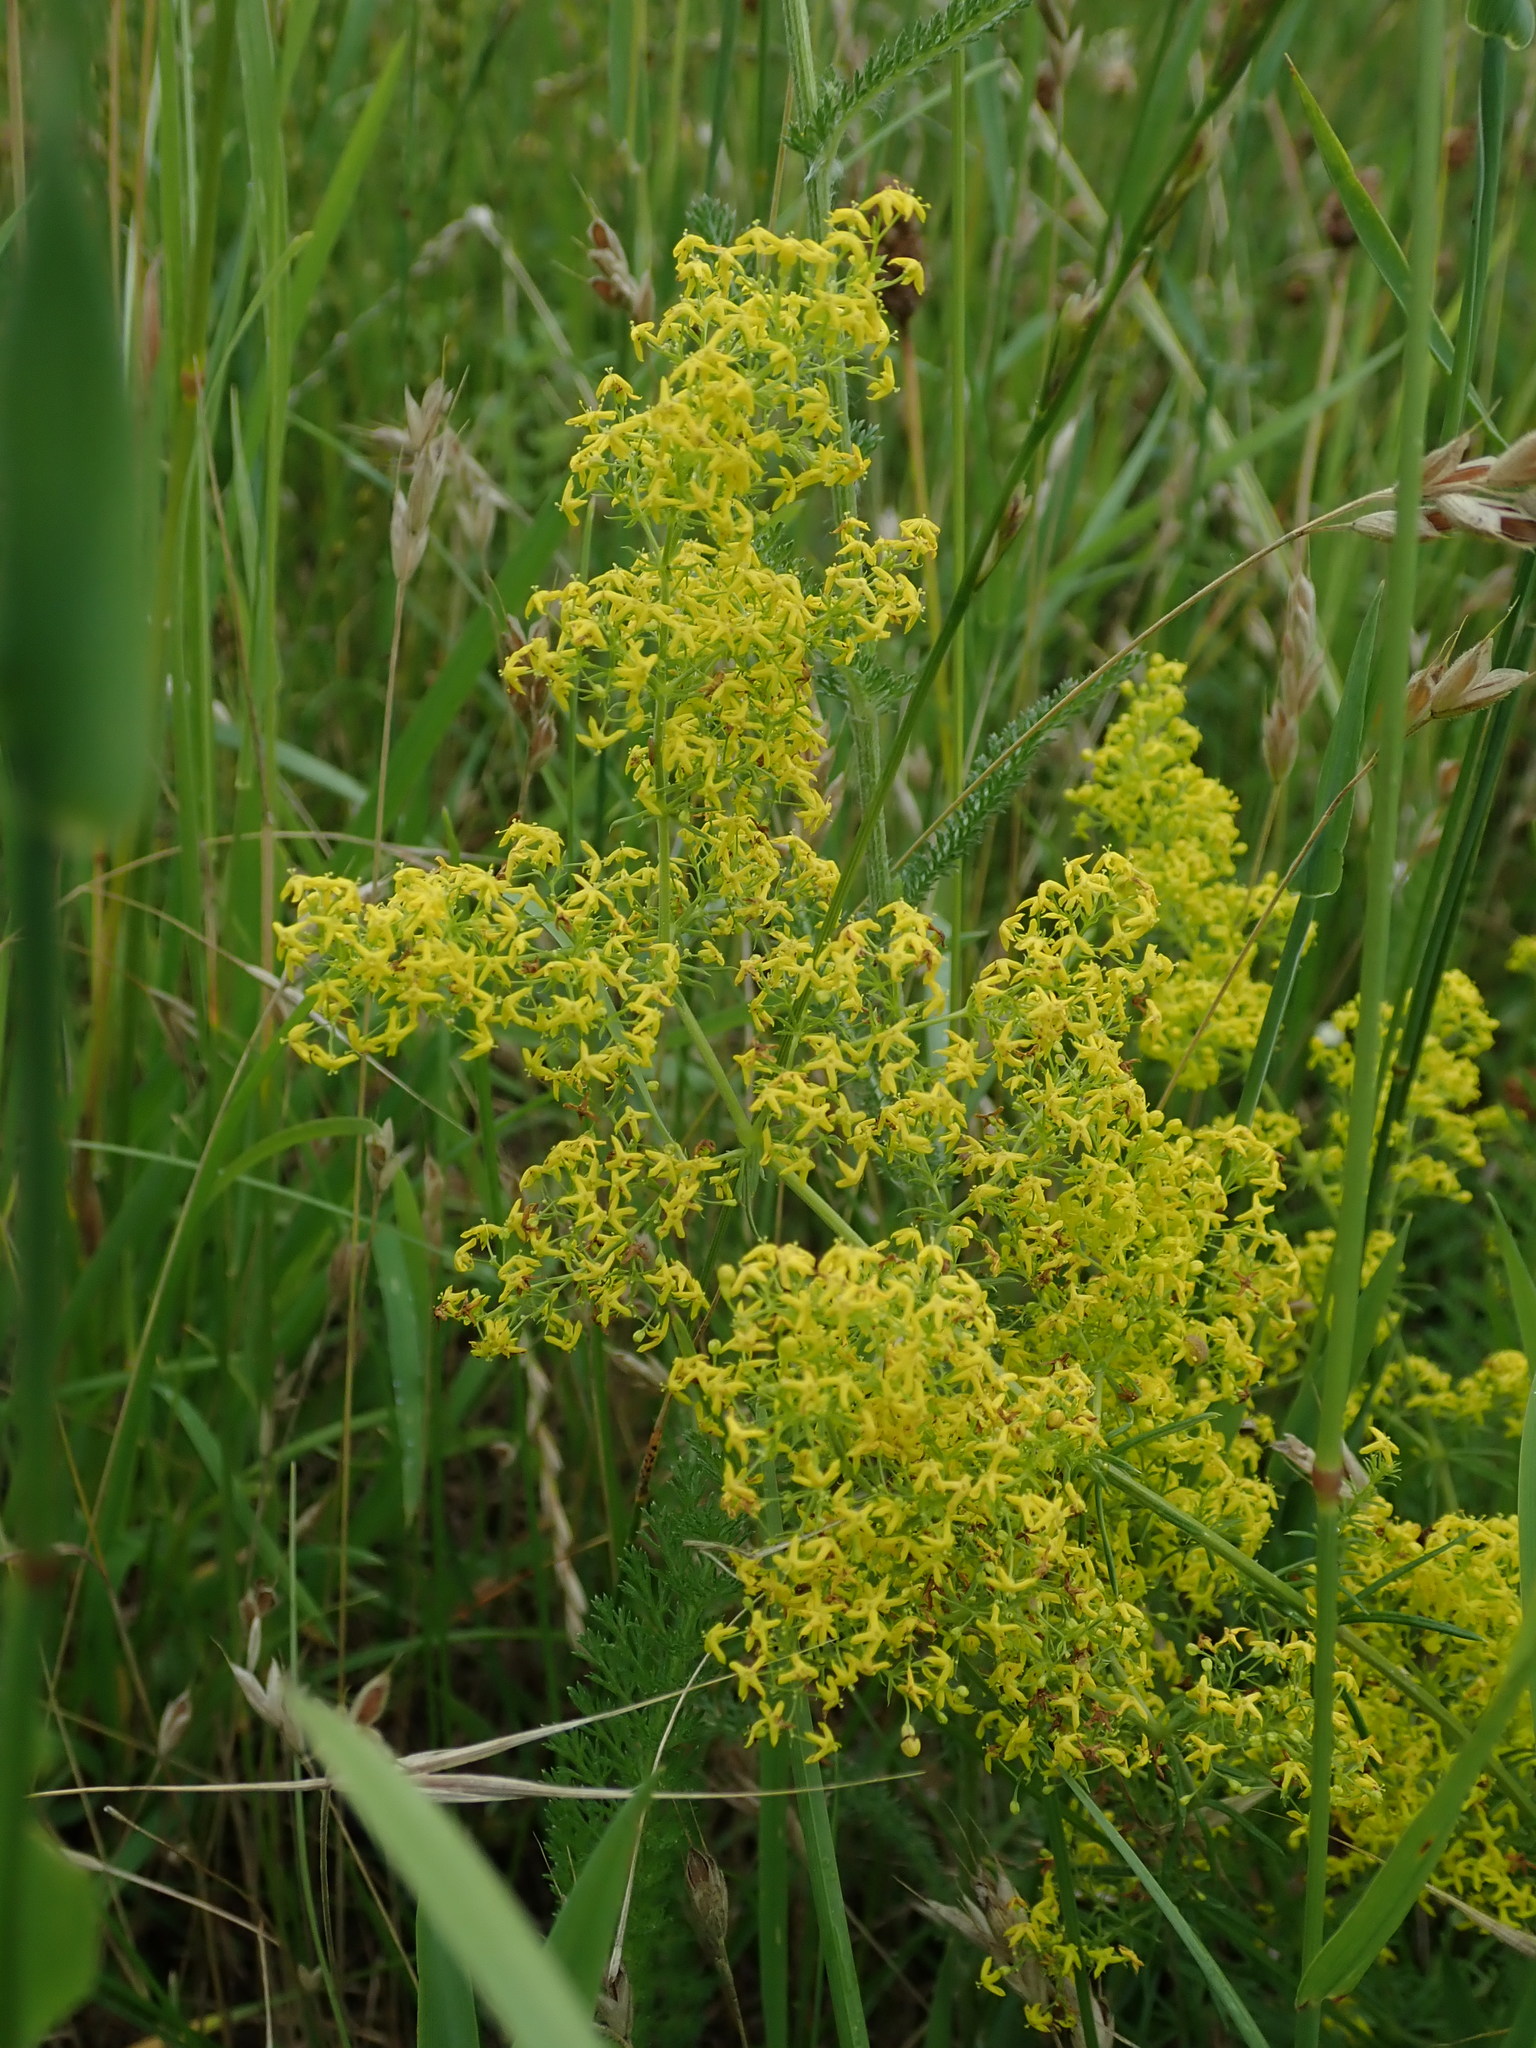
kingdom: Plantae
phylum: Tracheophyta
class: Magnoliopsida
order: Gentianales
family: Rubiaceae
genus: Galium
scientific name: Galium verum
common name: Lady's bedstraw
